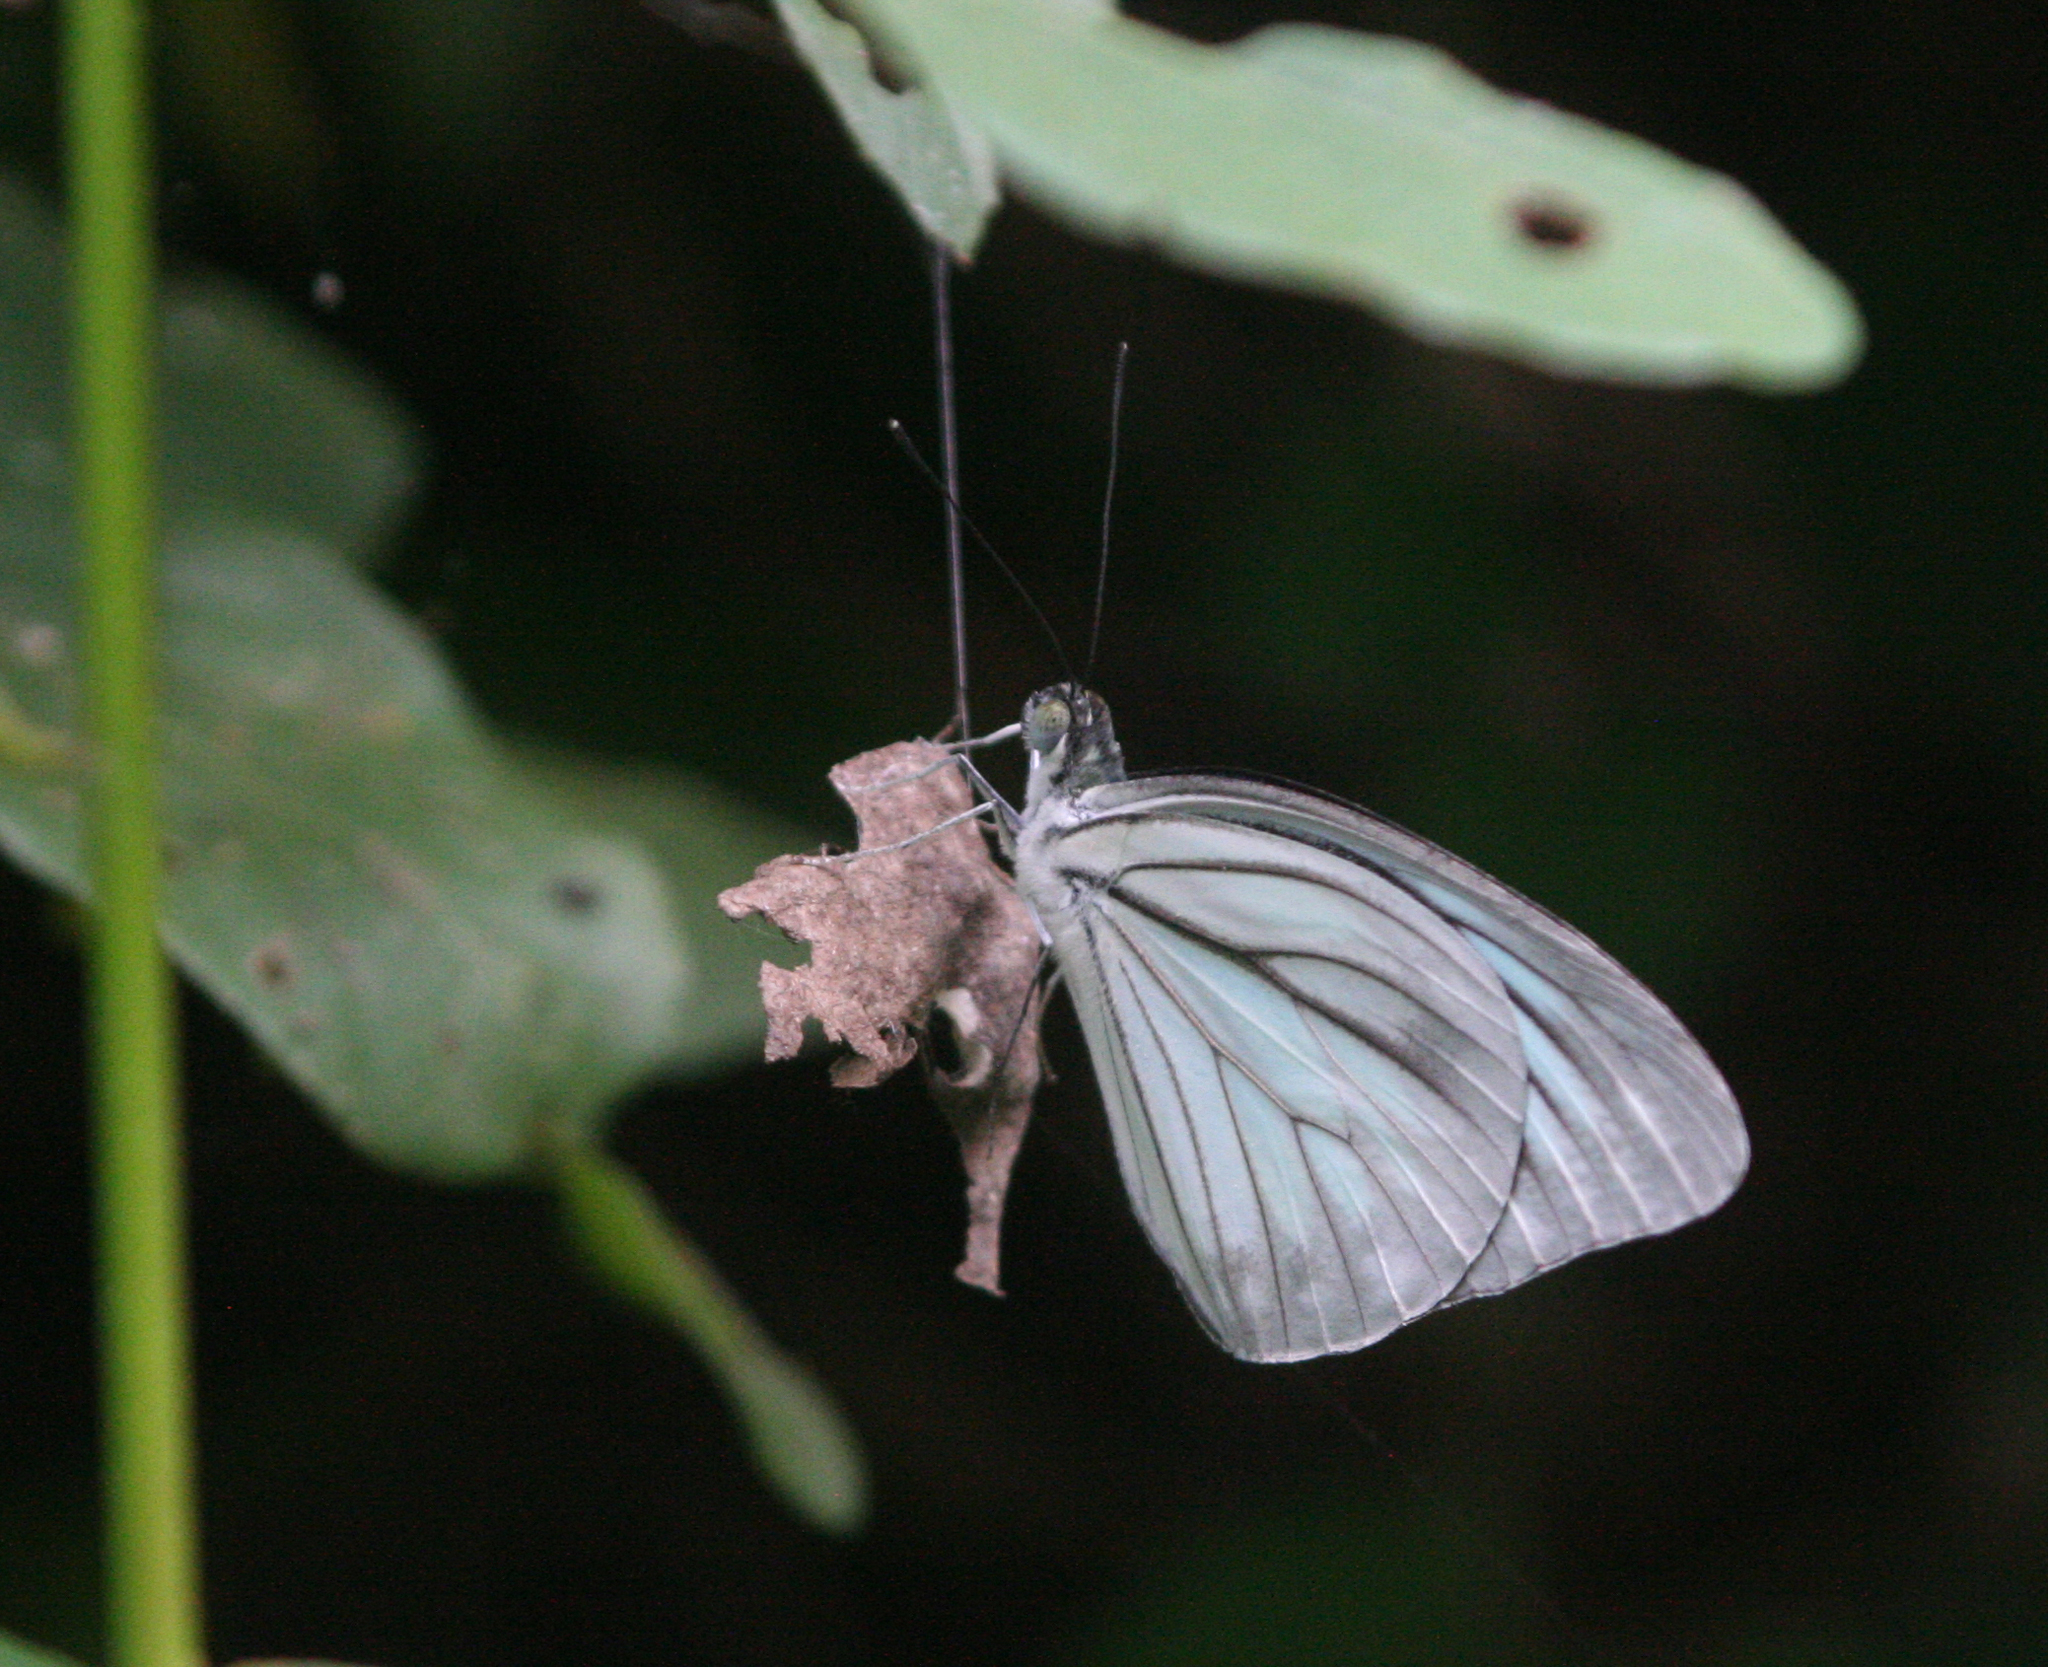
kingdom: Animalia
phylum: Arthropoda
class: Insecta
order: Lepidoptera
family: Pieridae
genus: Pareronia
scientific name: Pareronia hippia
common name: Indian wanderer
